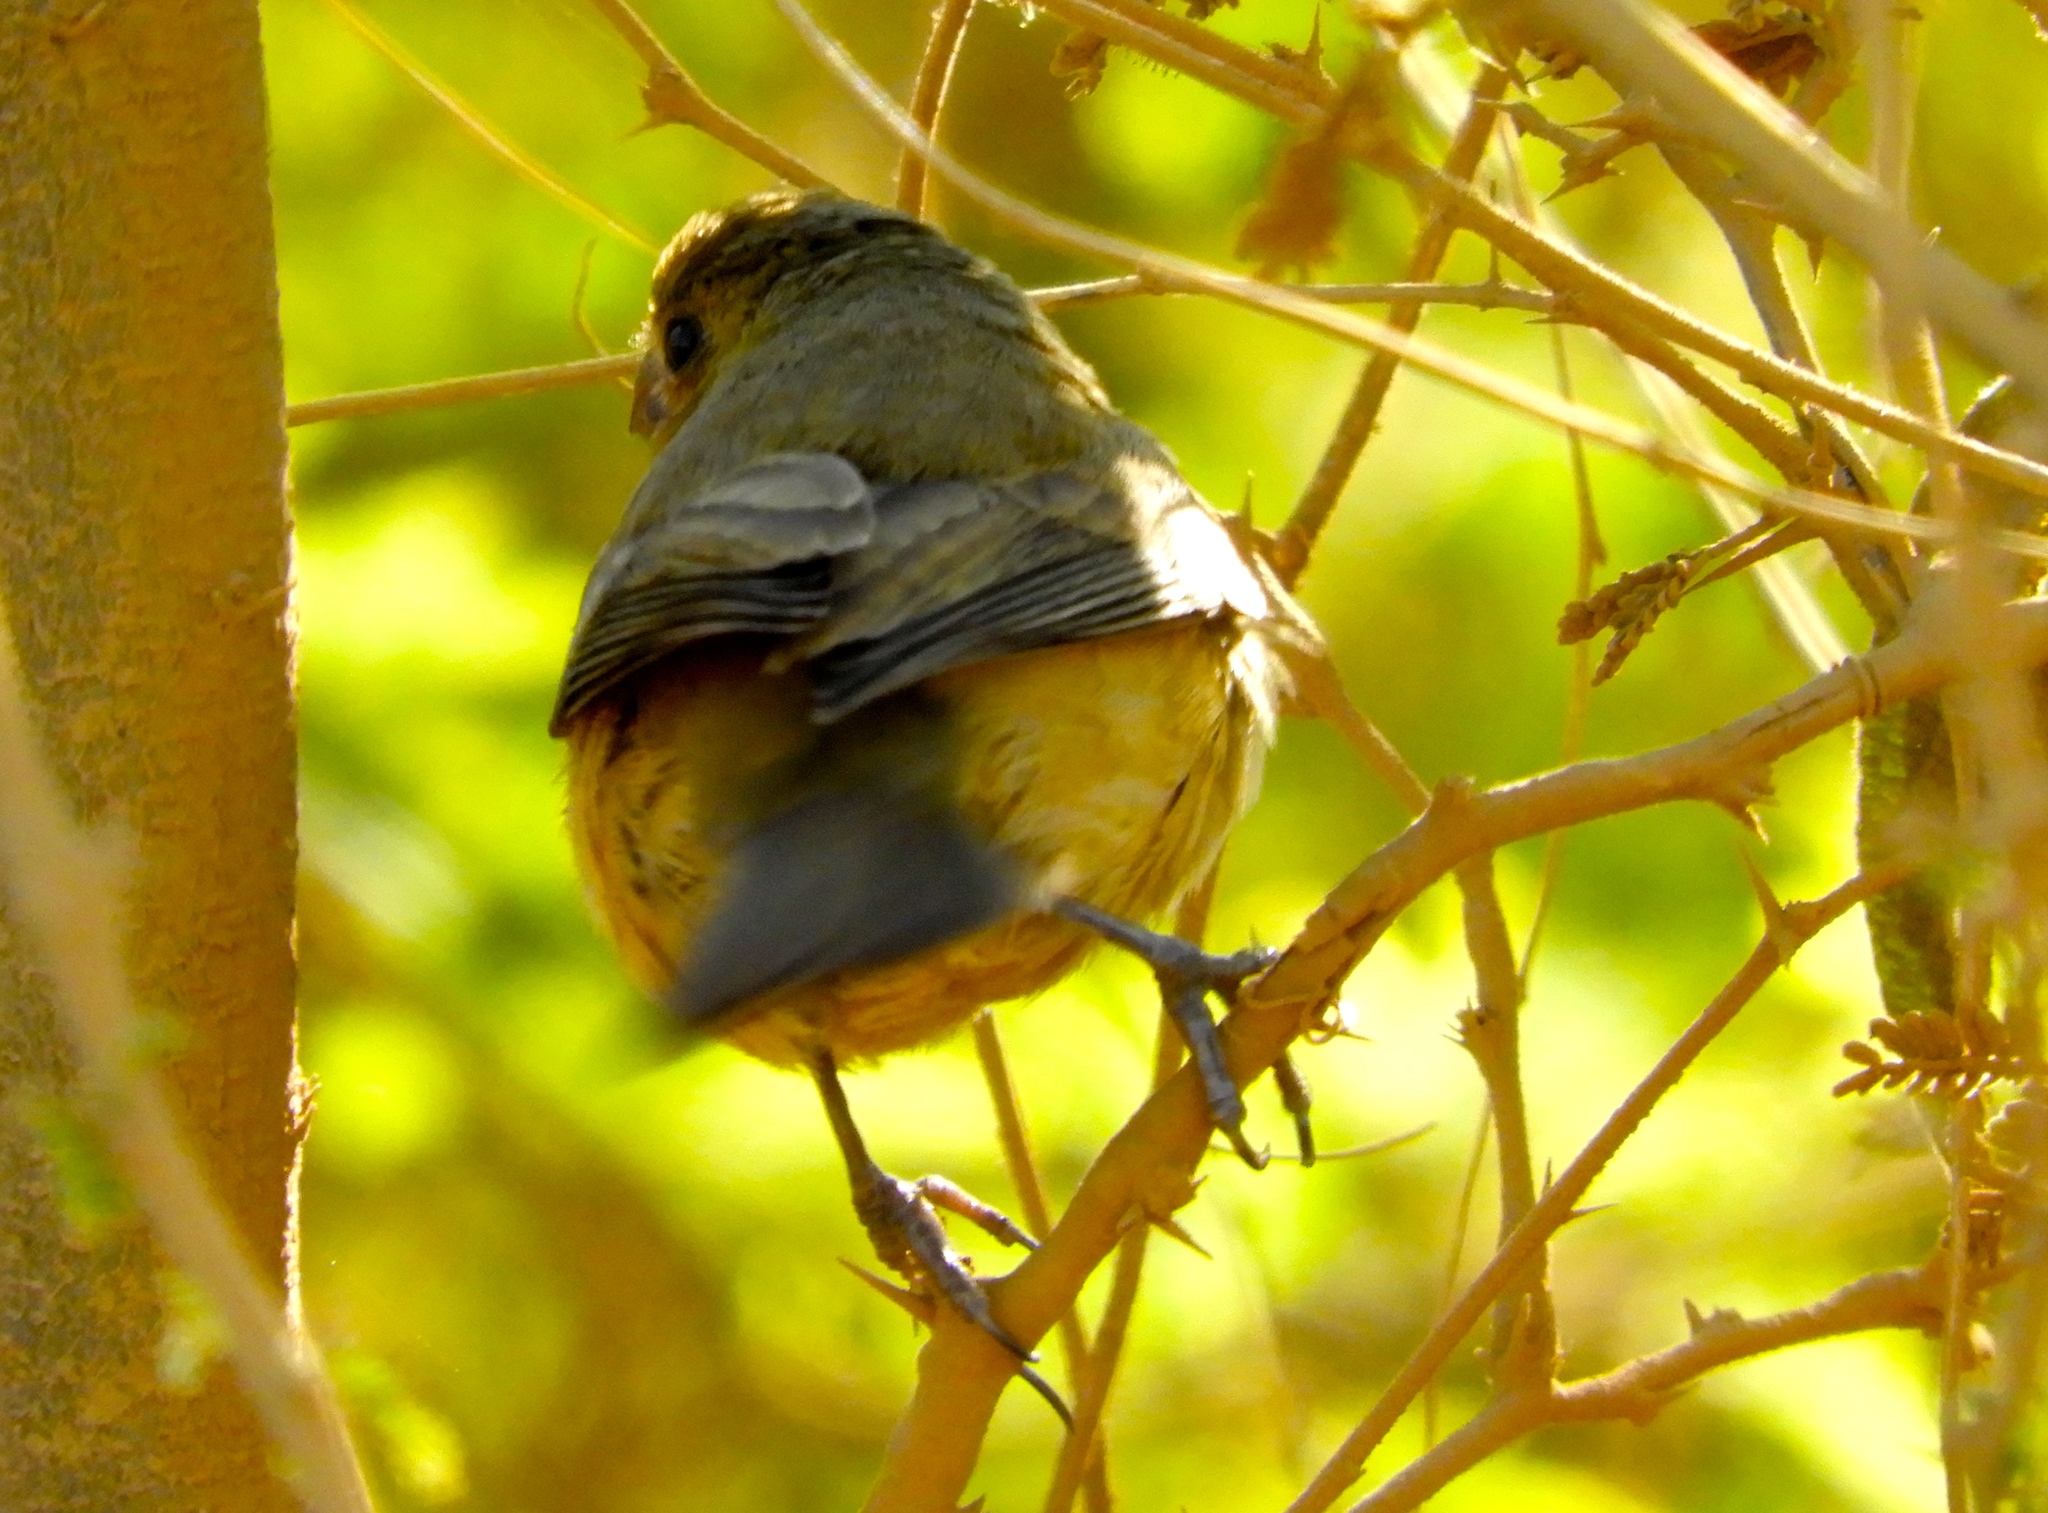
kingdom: Animalia
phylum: Chordata
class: Aves
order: Passeriformes
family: Thraupidae
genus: Sporophila
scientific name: Sporophila
